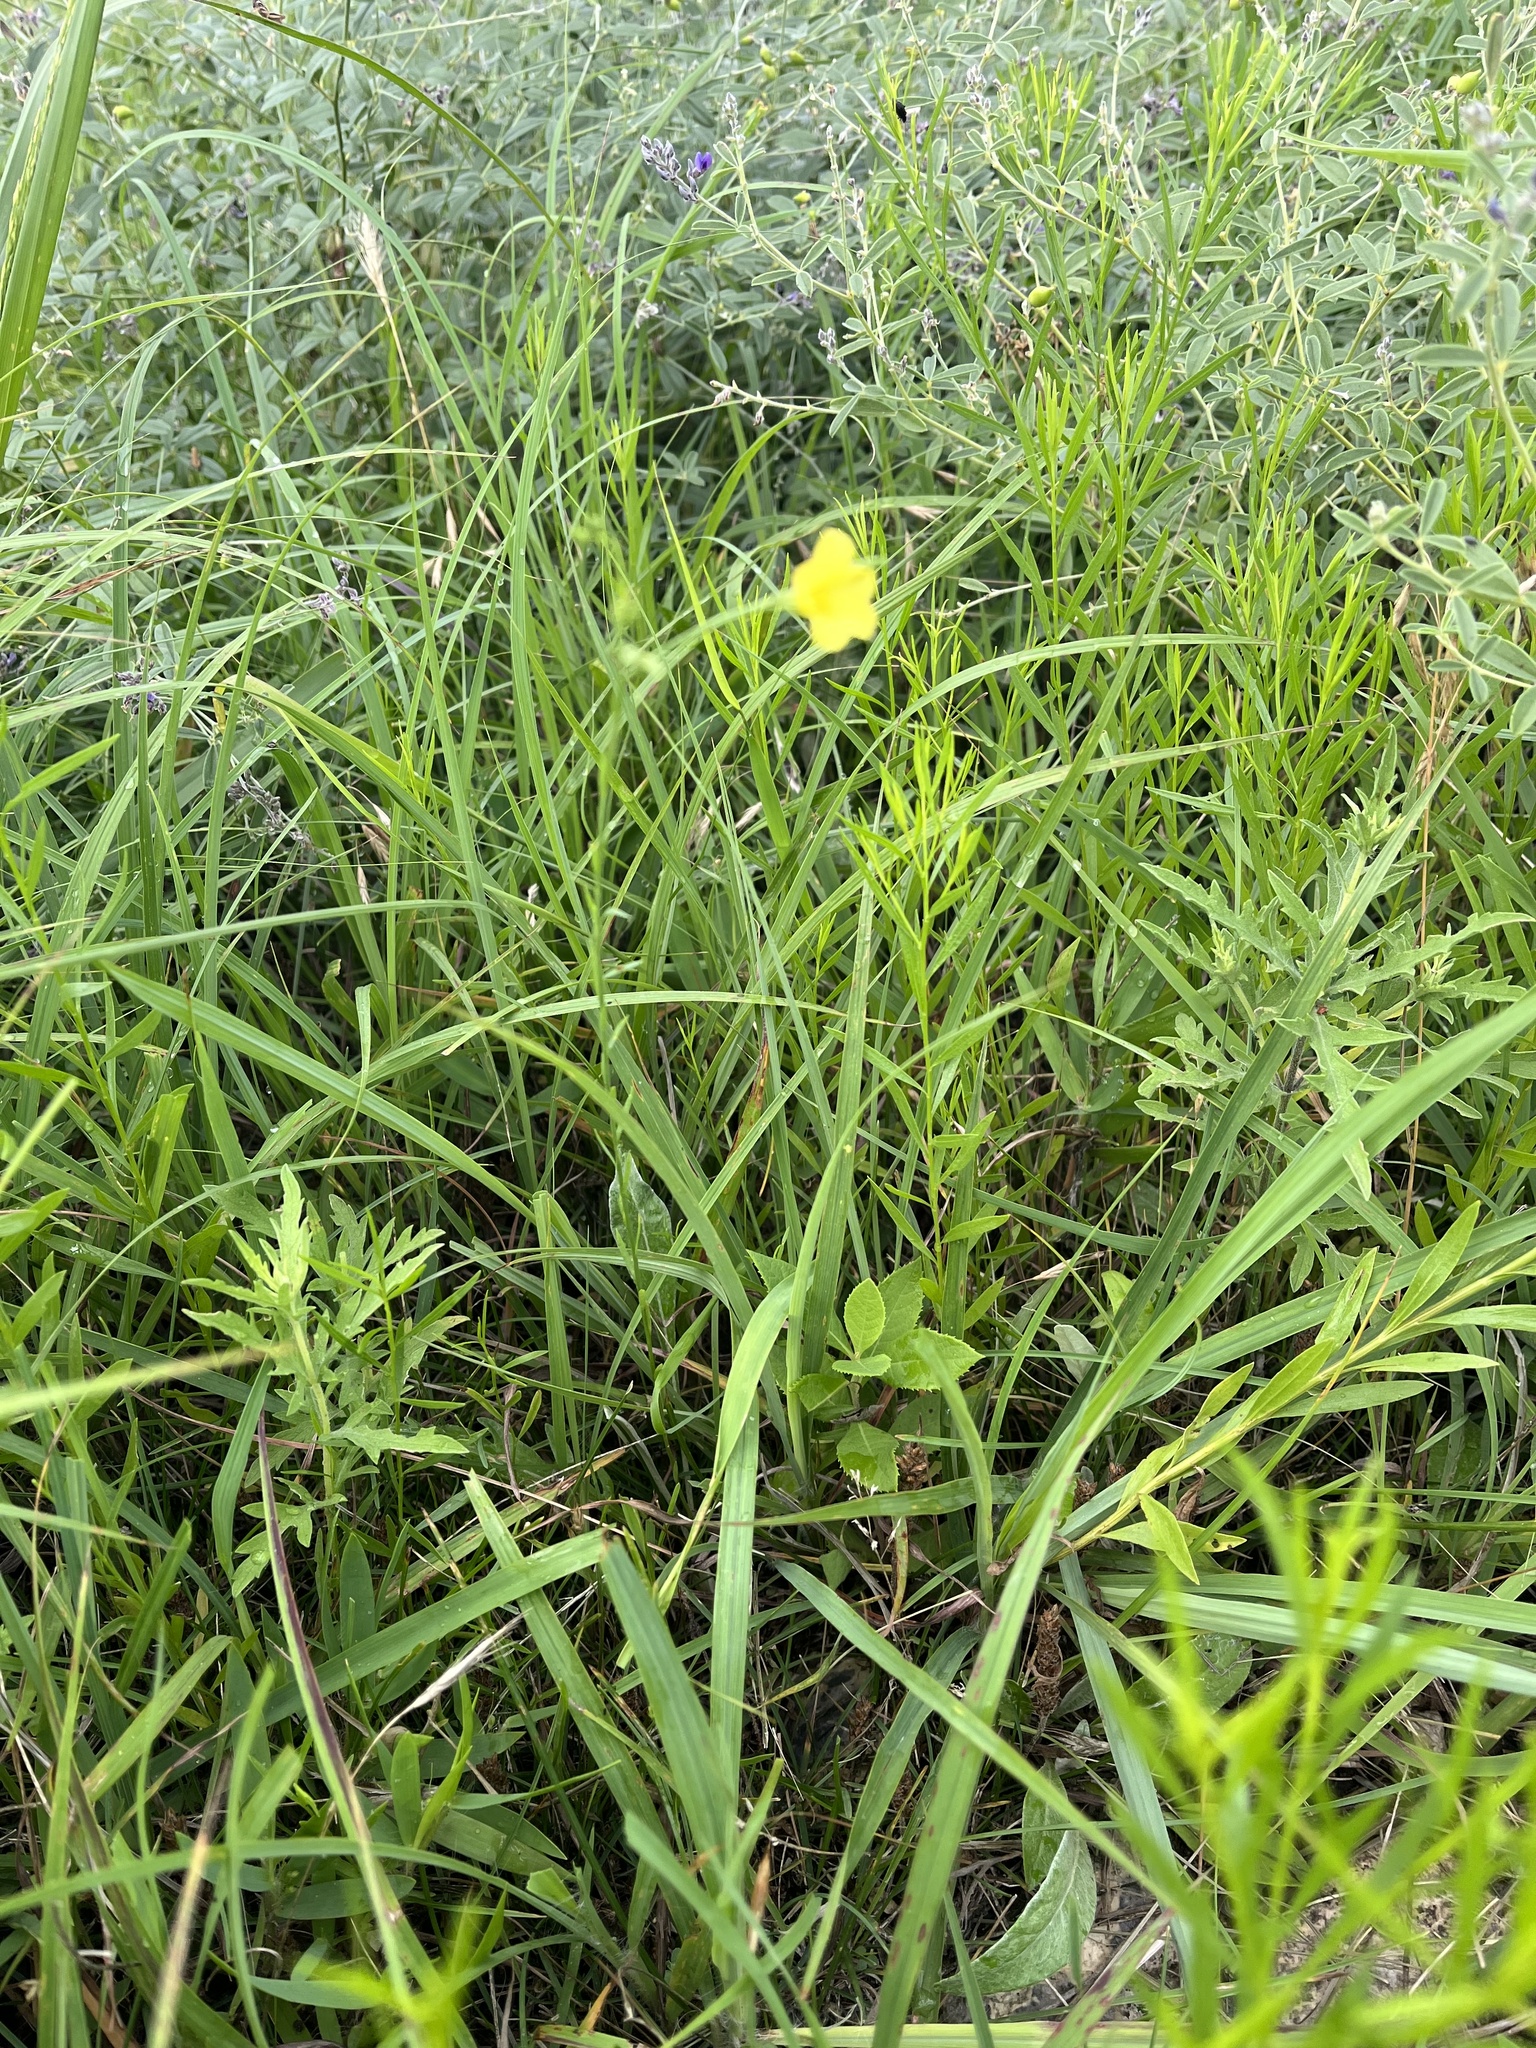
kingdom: Plantae
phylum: Tracheophyta
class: Magnoliopsida
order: Malpighiales
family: Linaceae
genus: Linum
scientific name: Linum sulcatum
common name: Grooved flax
